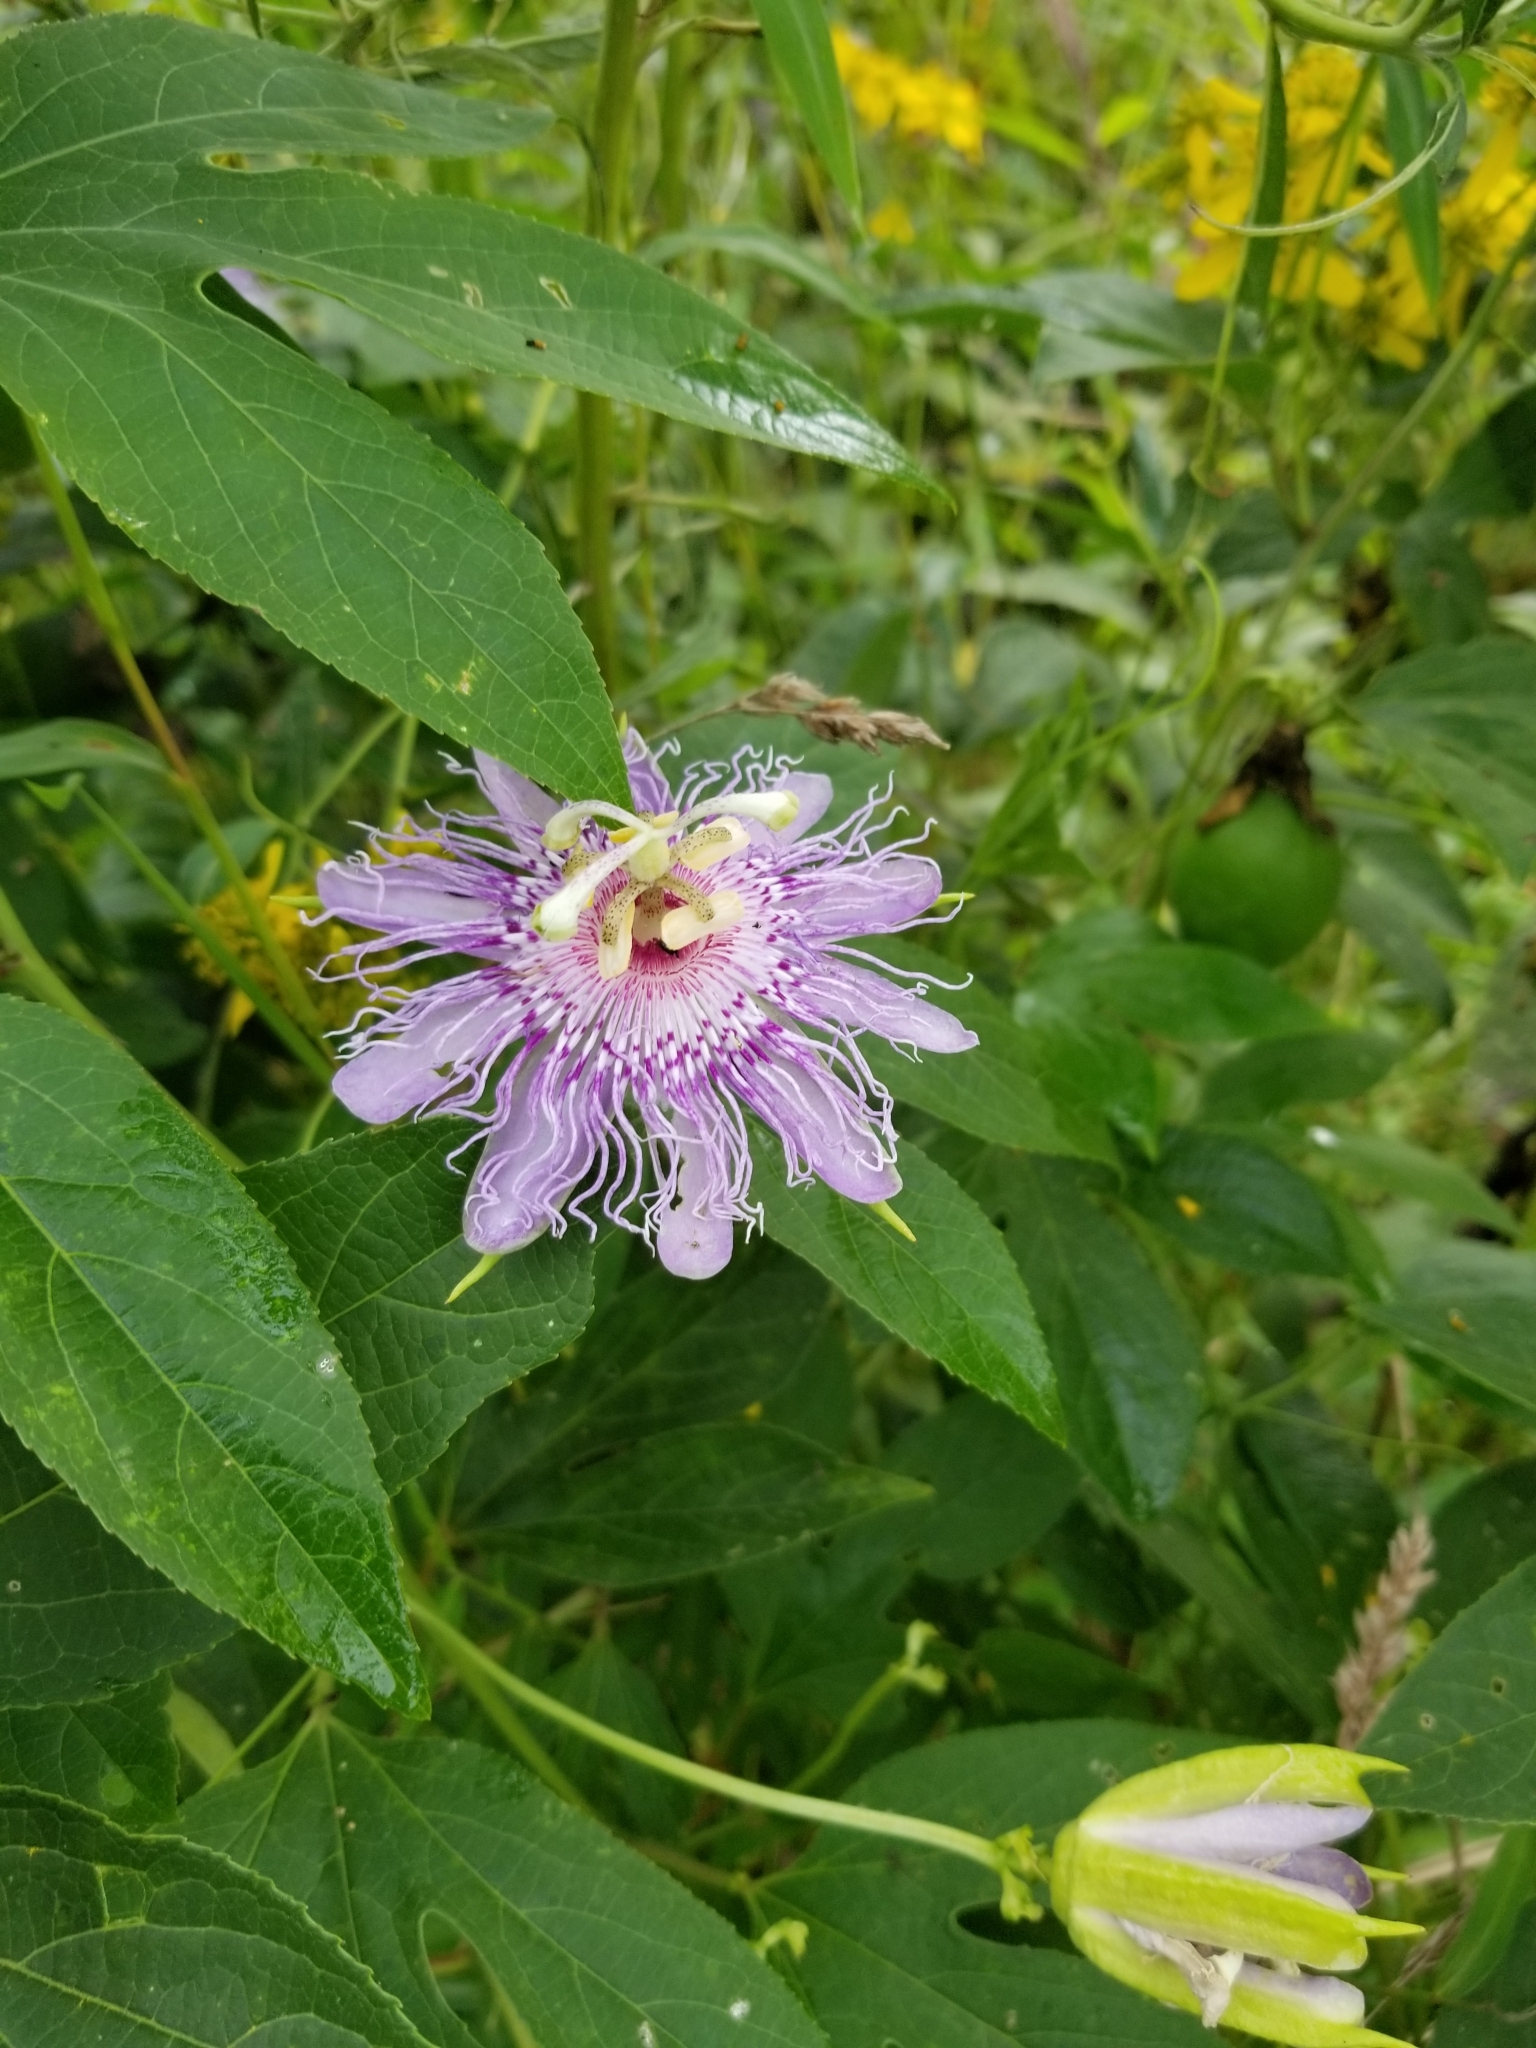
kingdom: Plantae
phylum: Tracheophyta
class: Magnoliopsida
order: Malpighiales
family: Passifloraceae
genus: Passiflora
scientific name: Passiflora incarnata
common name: Apricot-vine
